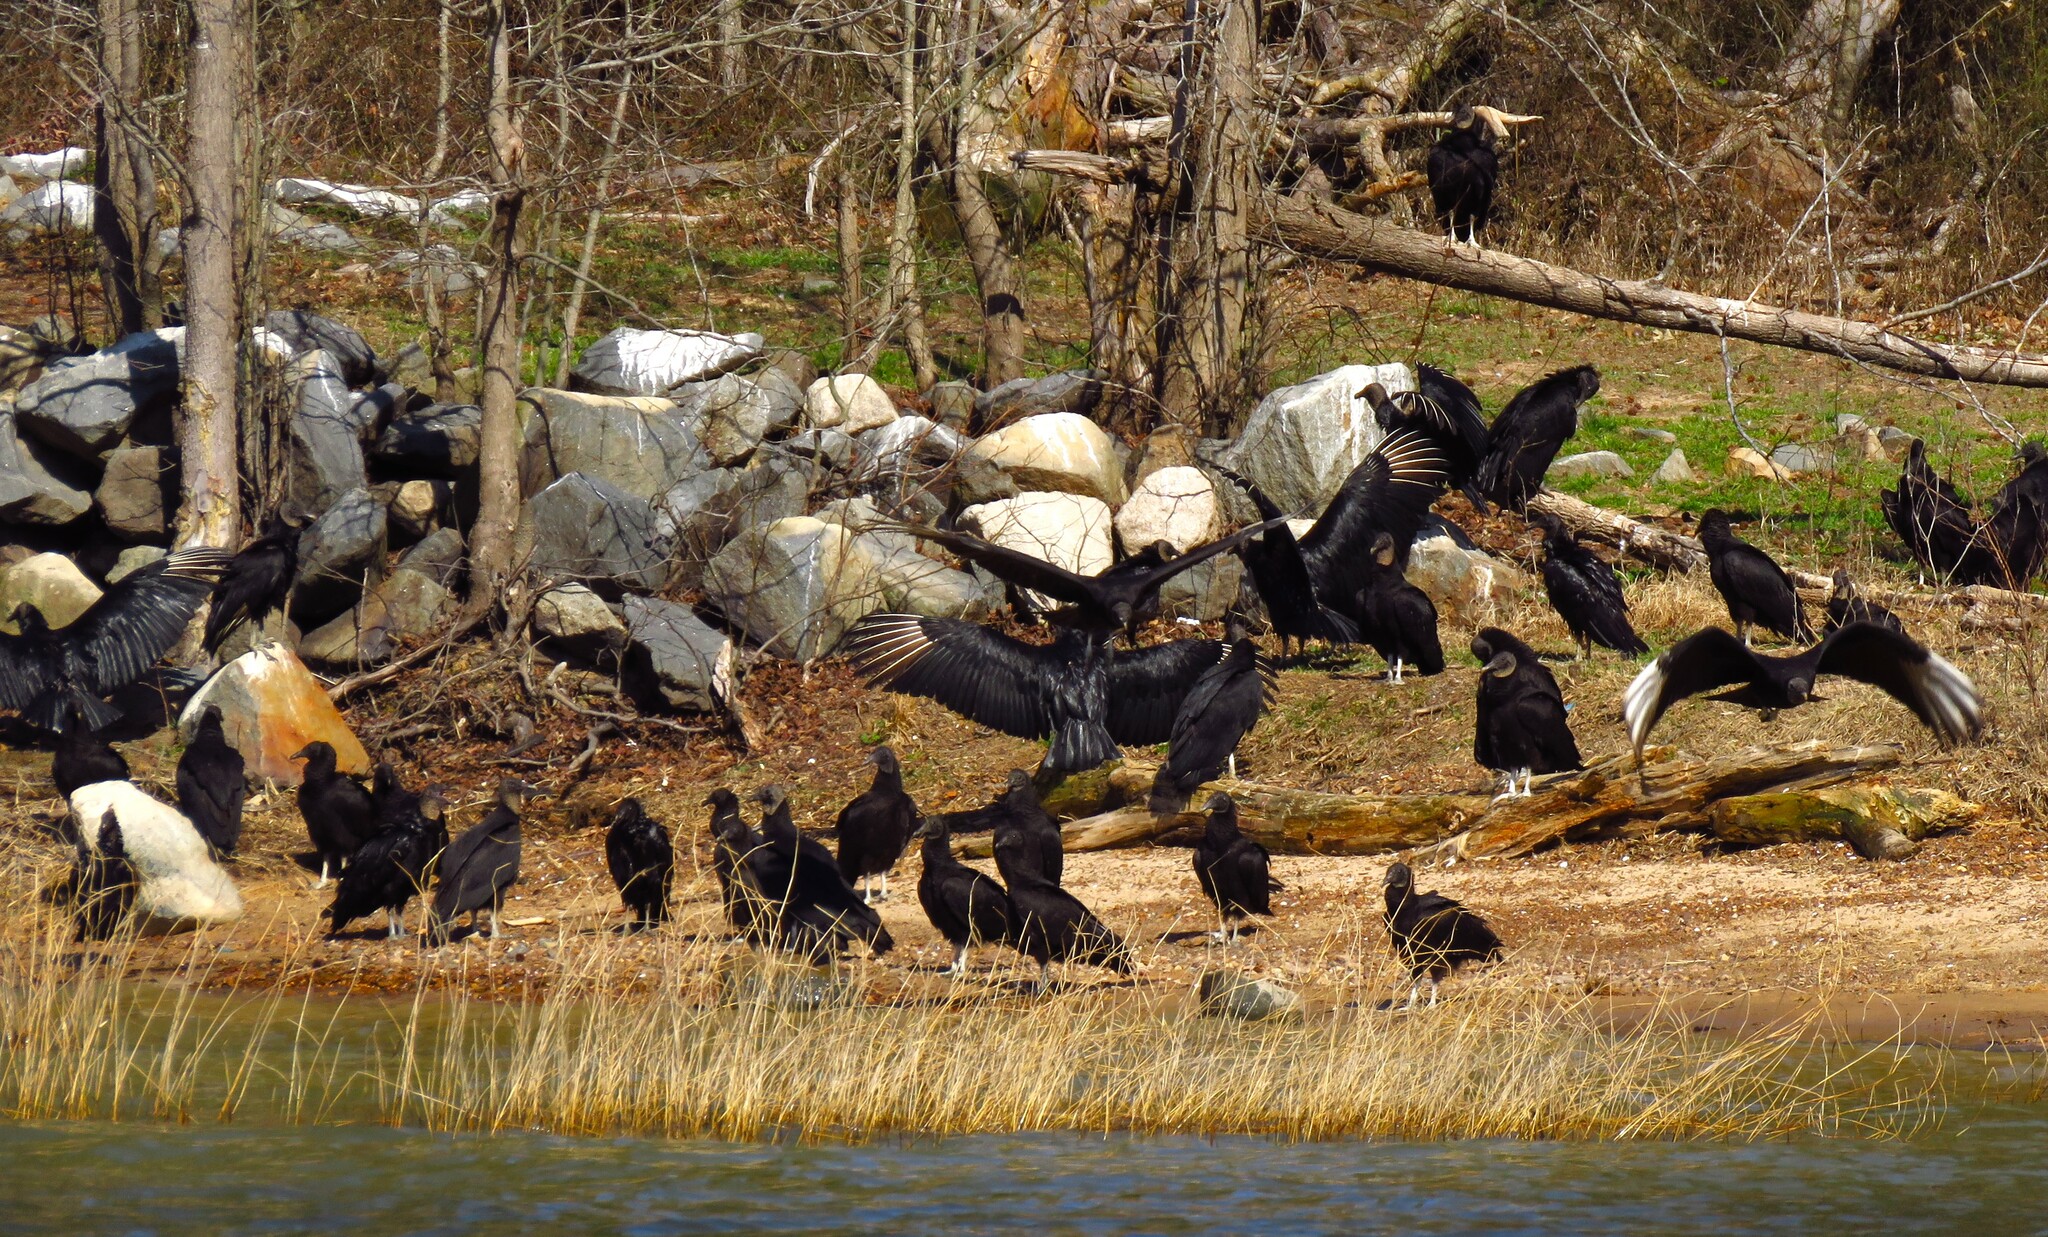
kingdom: Animalia
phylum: Chordata
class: Aves
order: Accipitriformes
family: Cathartidae
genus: Coragyps
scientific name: Coragyps atratus
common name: Black vulture
